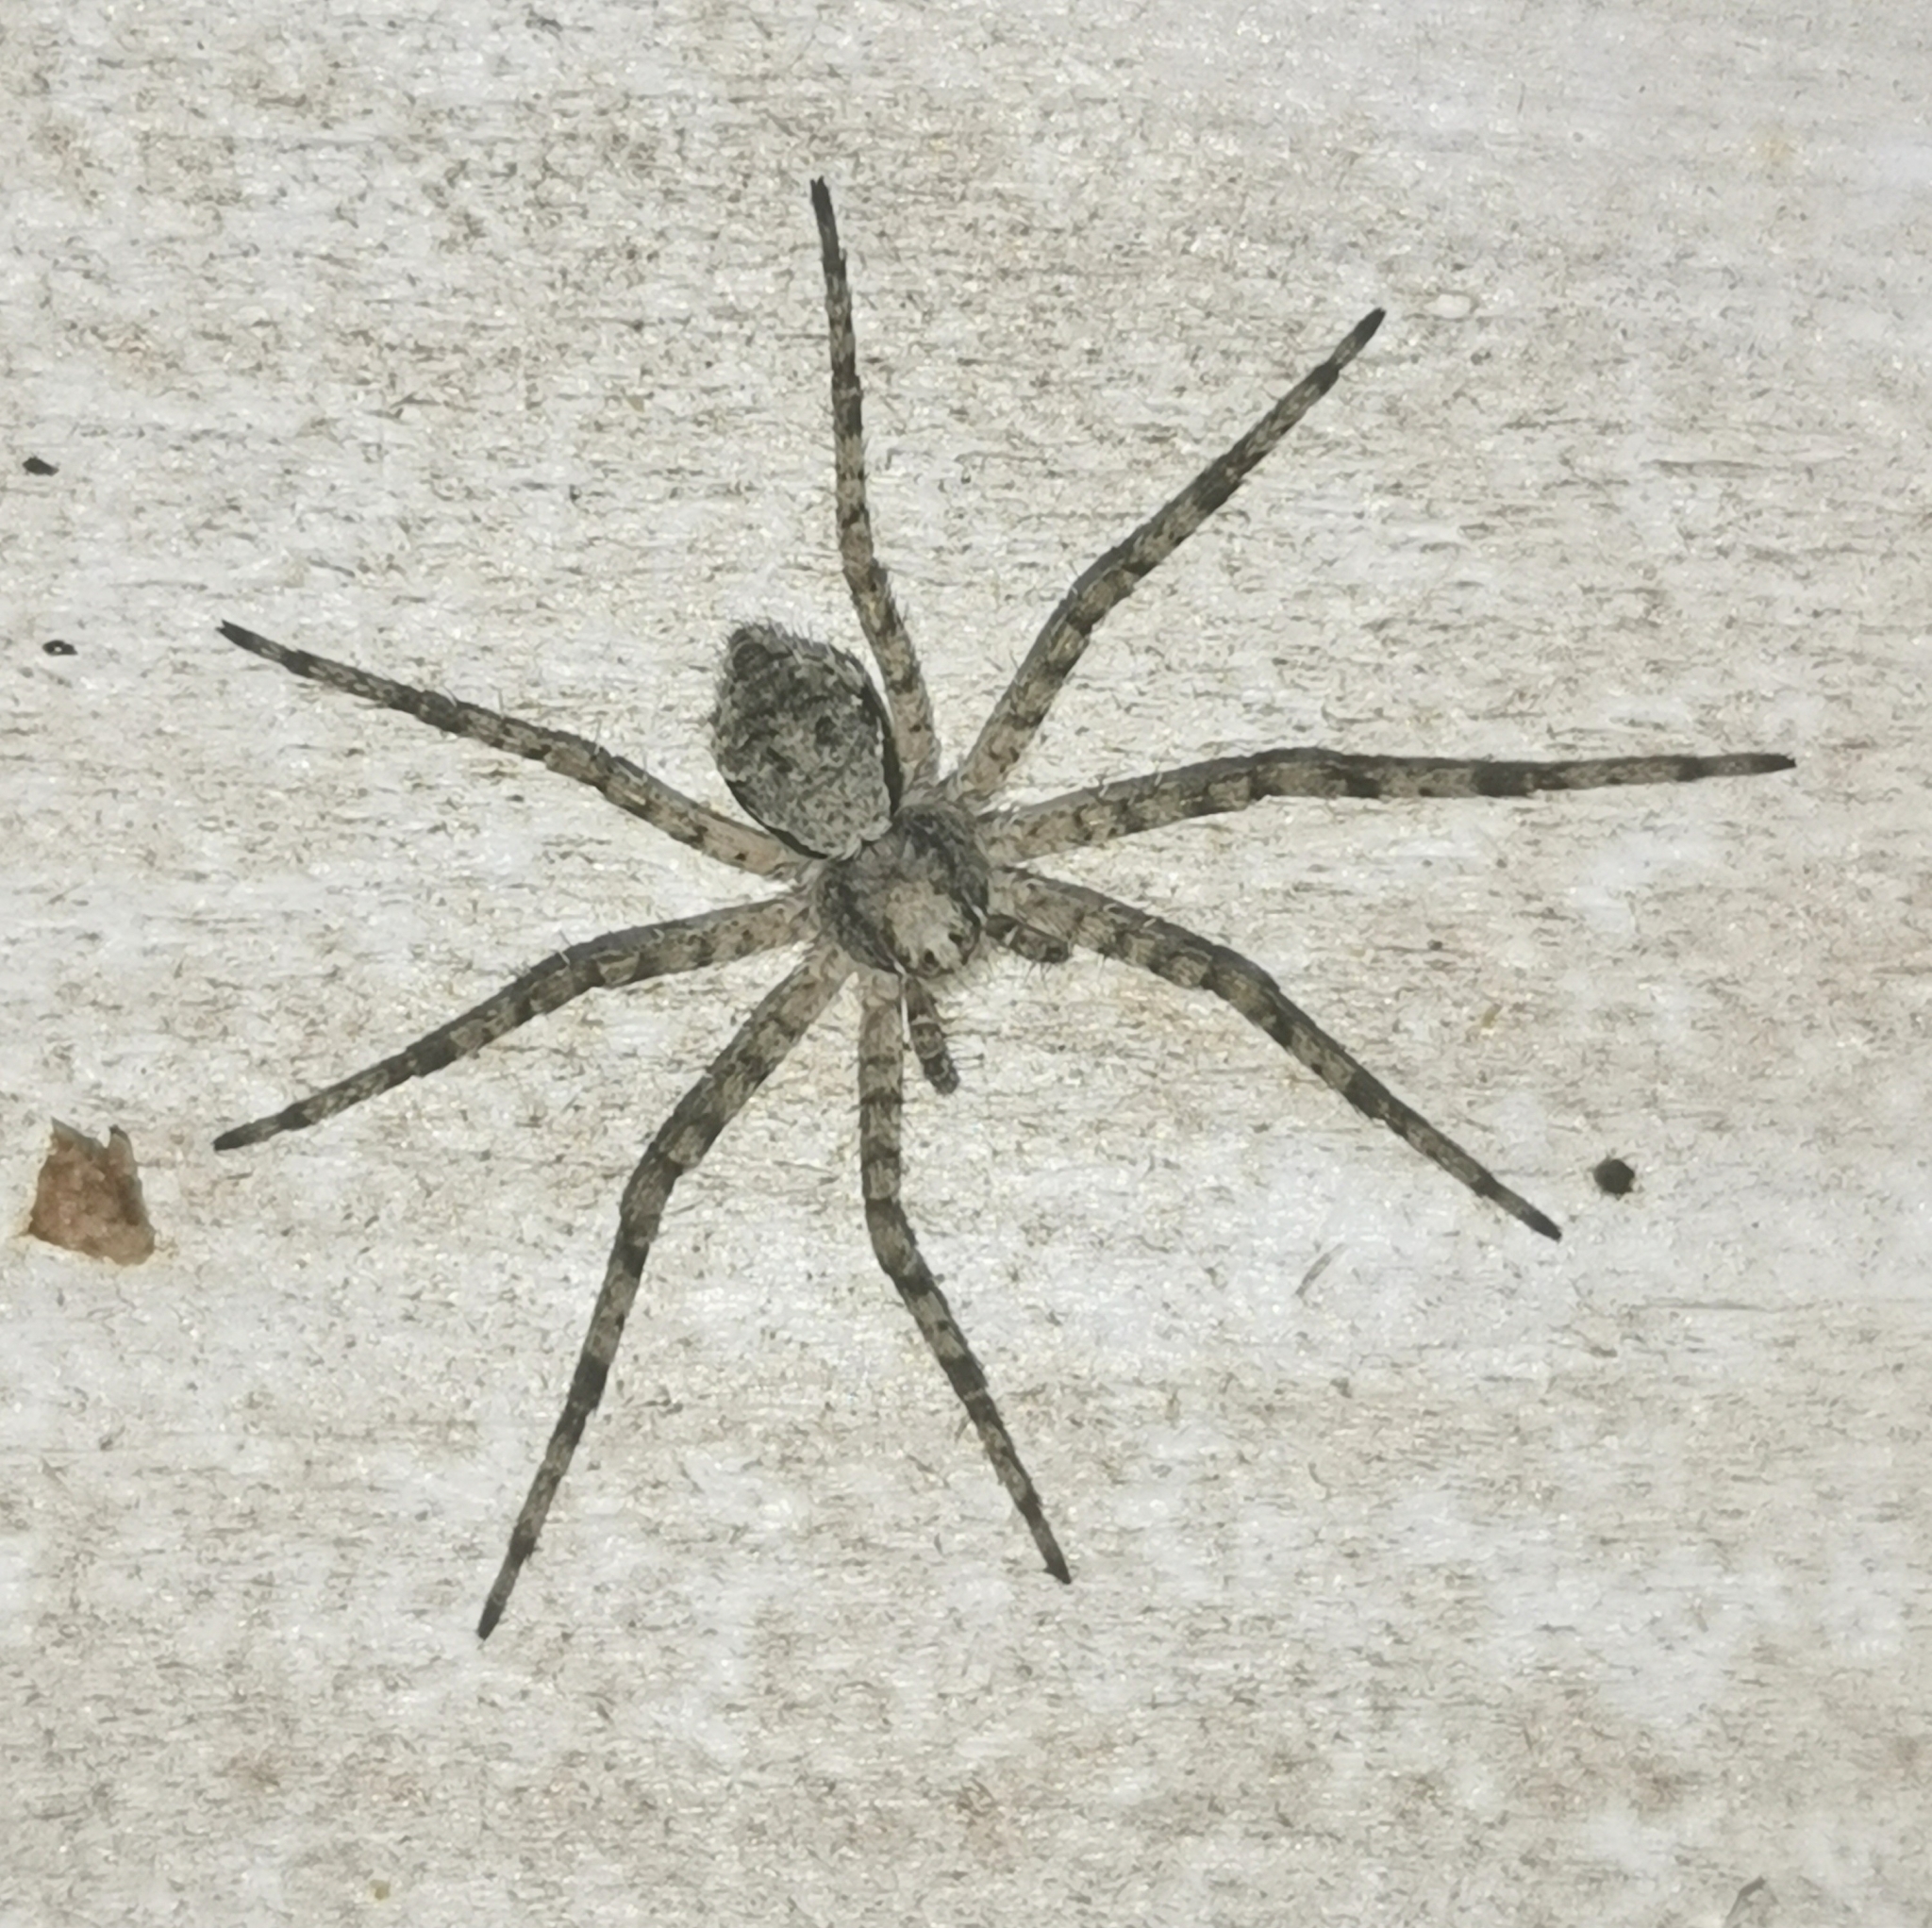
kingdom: Animalia
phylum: Arthropoda
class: Arachnida
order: Araneae
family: Philodromidae
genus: Philodromus
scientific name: Philodromus margaritatus
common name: Lichen running-spider
